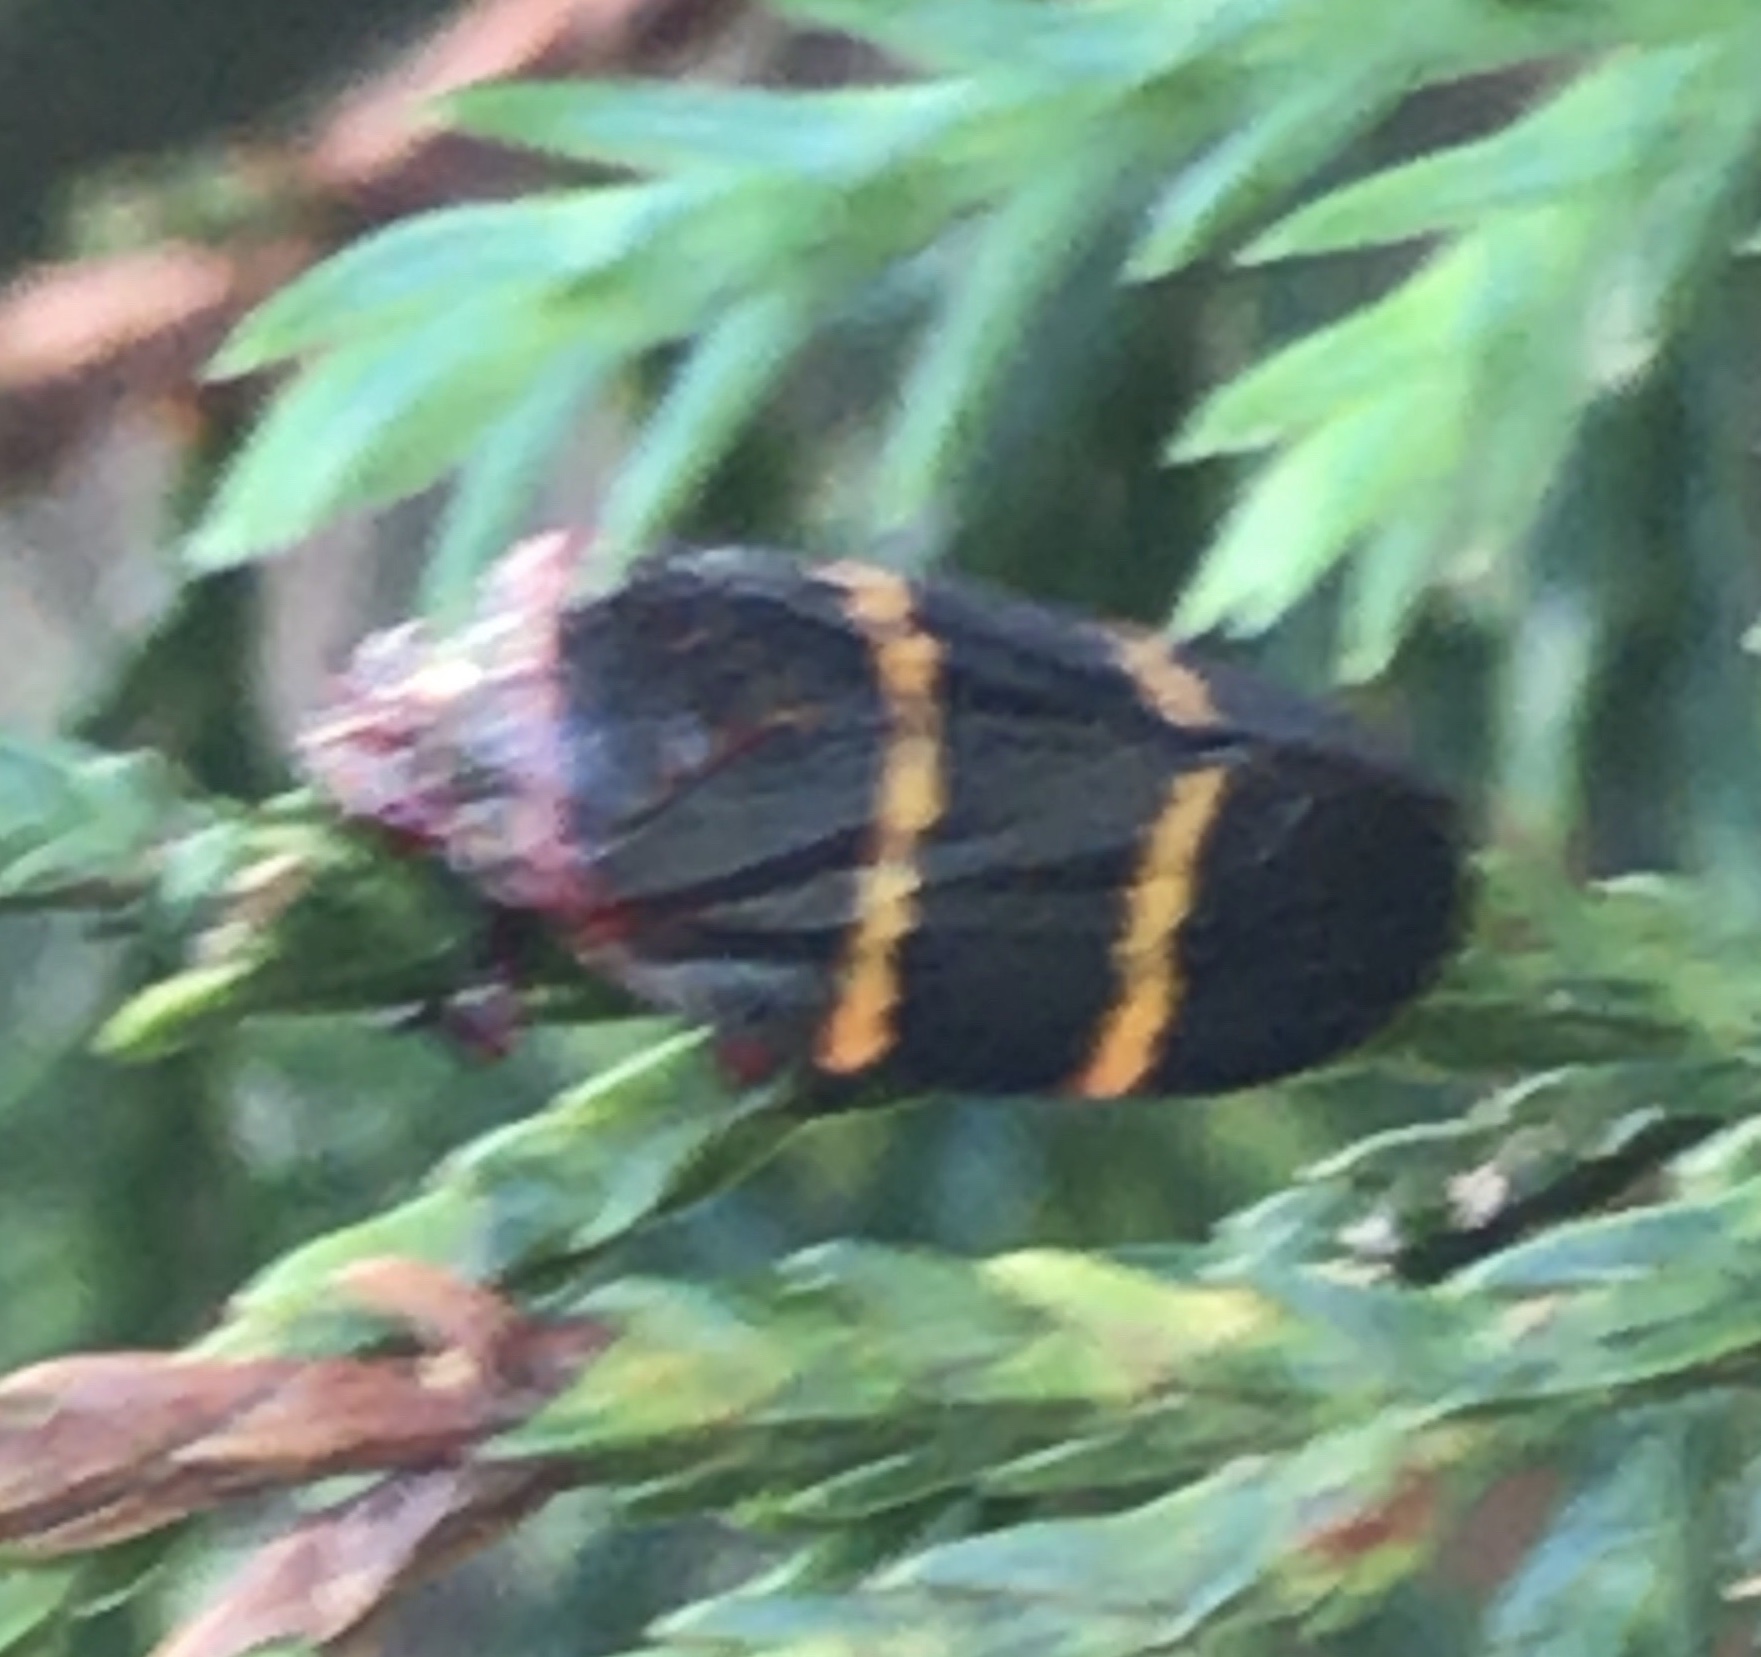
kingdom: Animalia
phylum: Arthropoda
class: Insecta
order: Hemiptera
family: Cercopidae
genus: Prosapia
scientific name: Prosapia bicincta
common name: Twolined spittlebug
